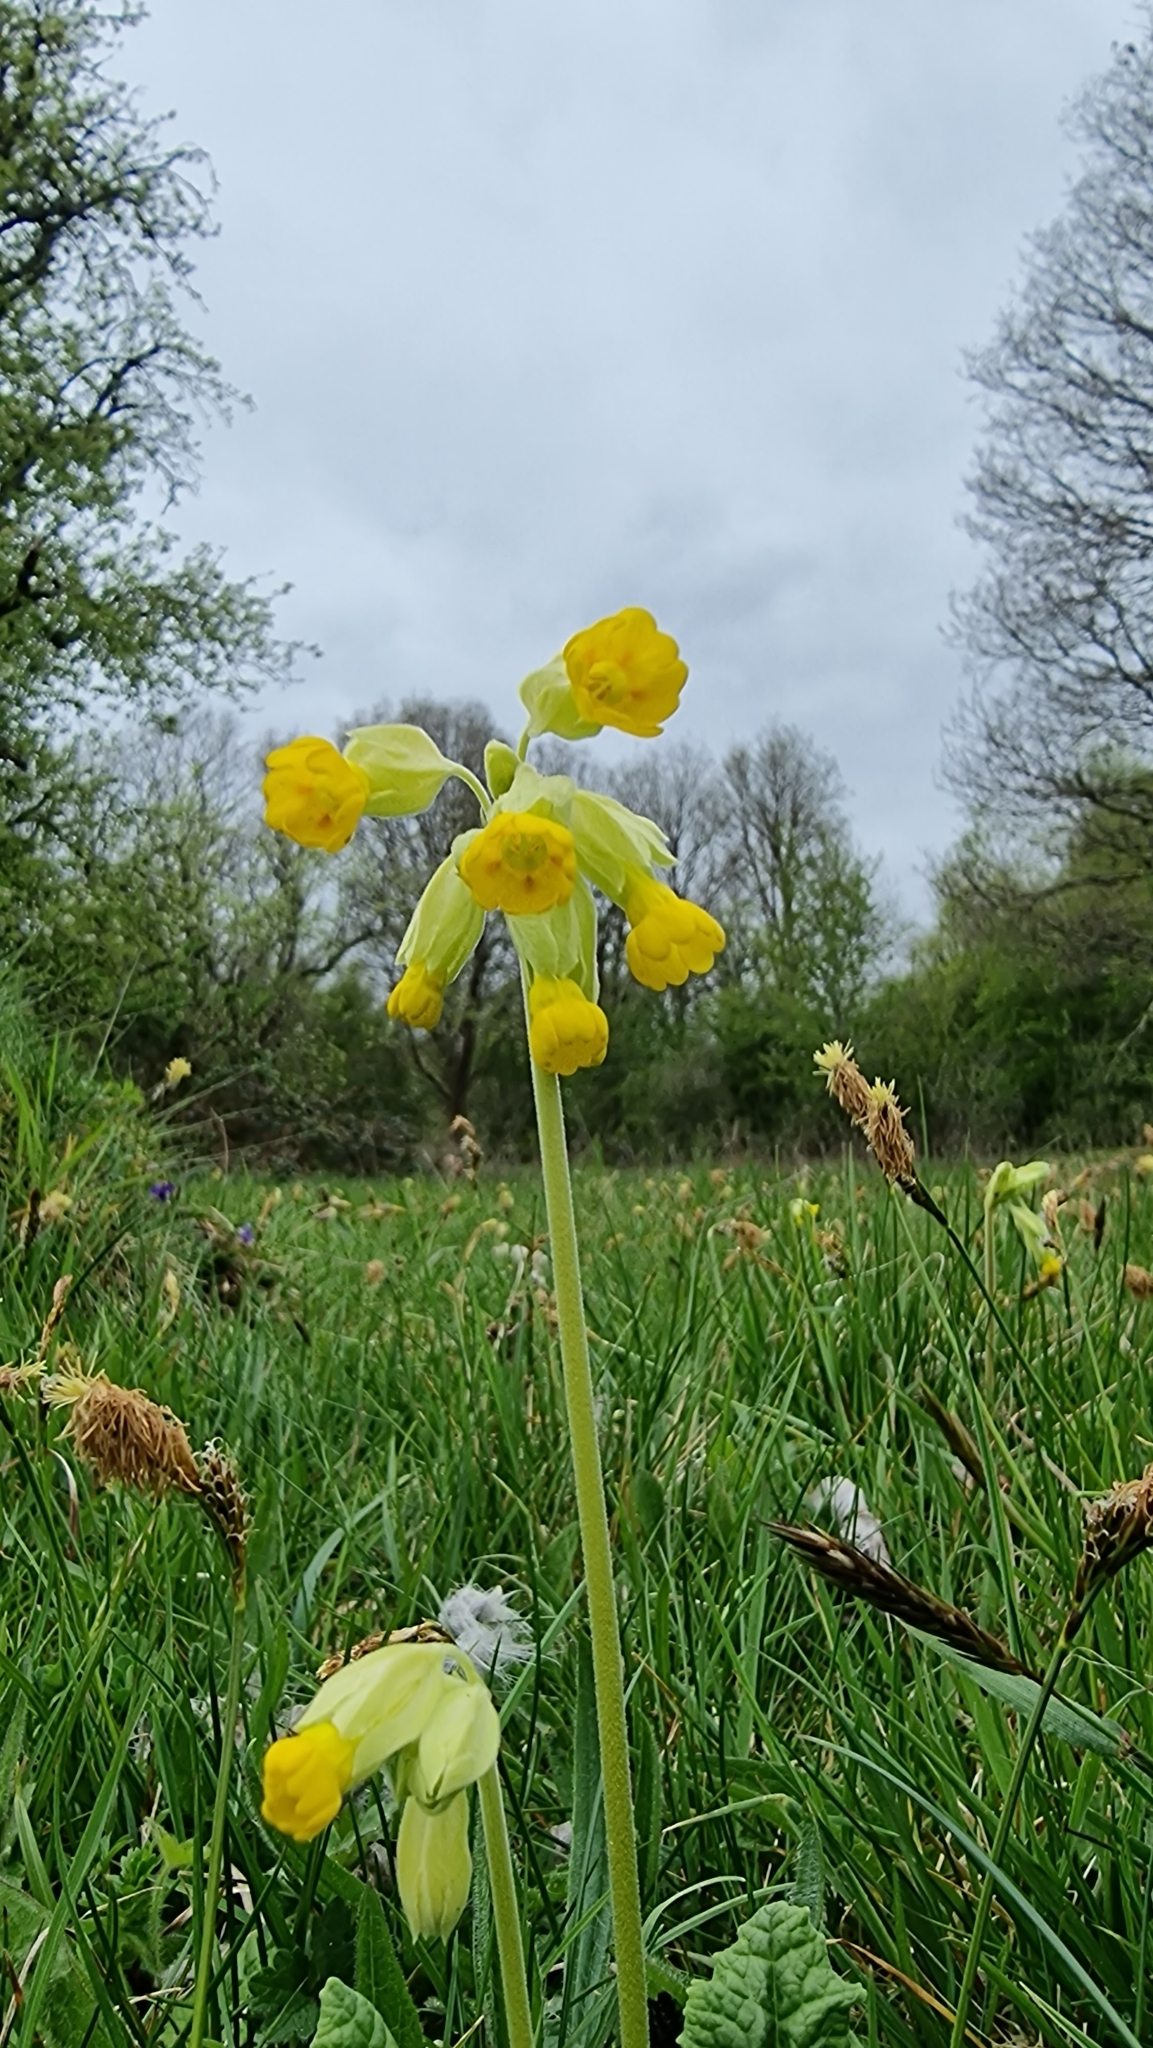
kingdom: Plantae
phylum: Tracheophyta
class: Magnoliopsida
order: Ericales
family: Primulaceae
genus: Primula
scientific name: Primula veris
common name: Cowslip
